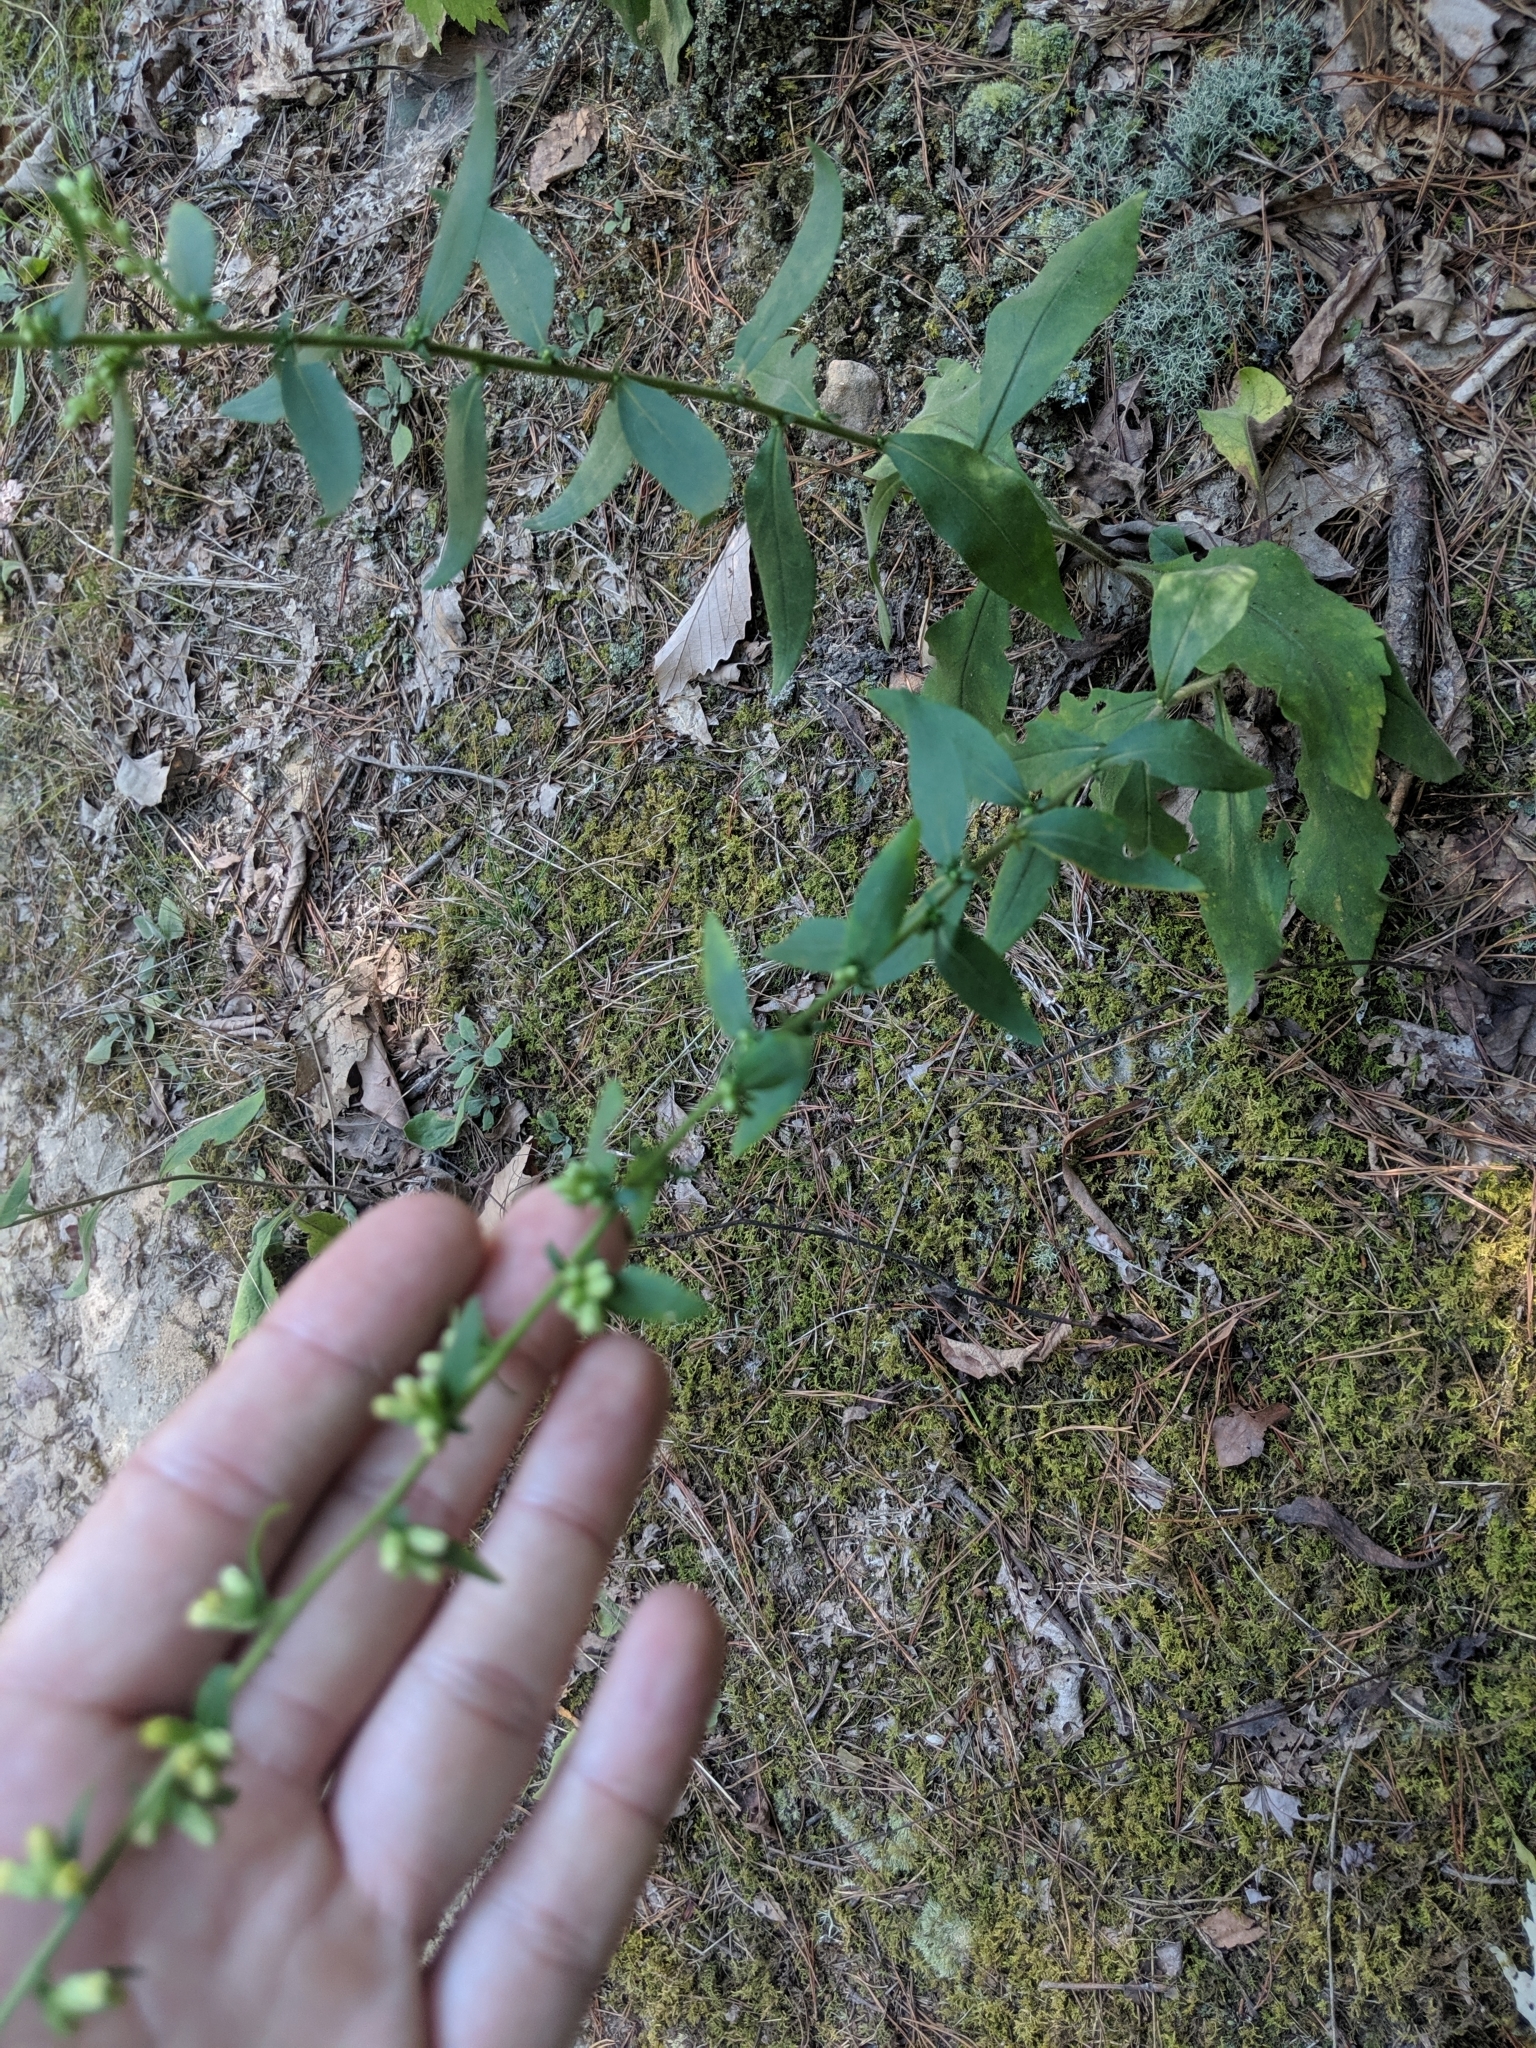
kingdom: Plantae
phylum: Tracheophyta
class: Magnoliopsida
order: Asterales
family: Asteraceae
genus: Solidago
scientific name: Solidago bicolor
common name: Silverrod
